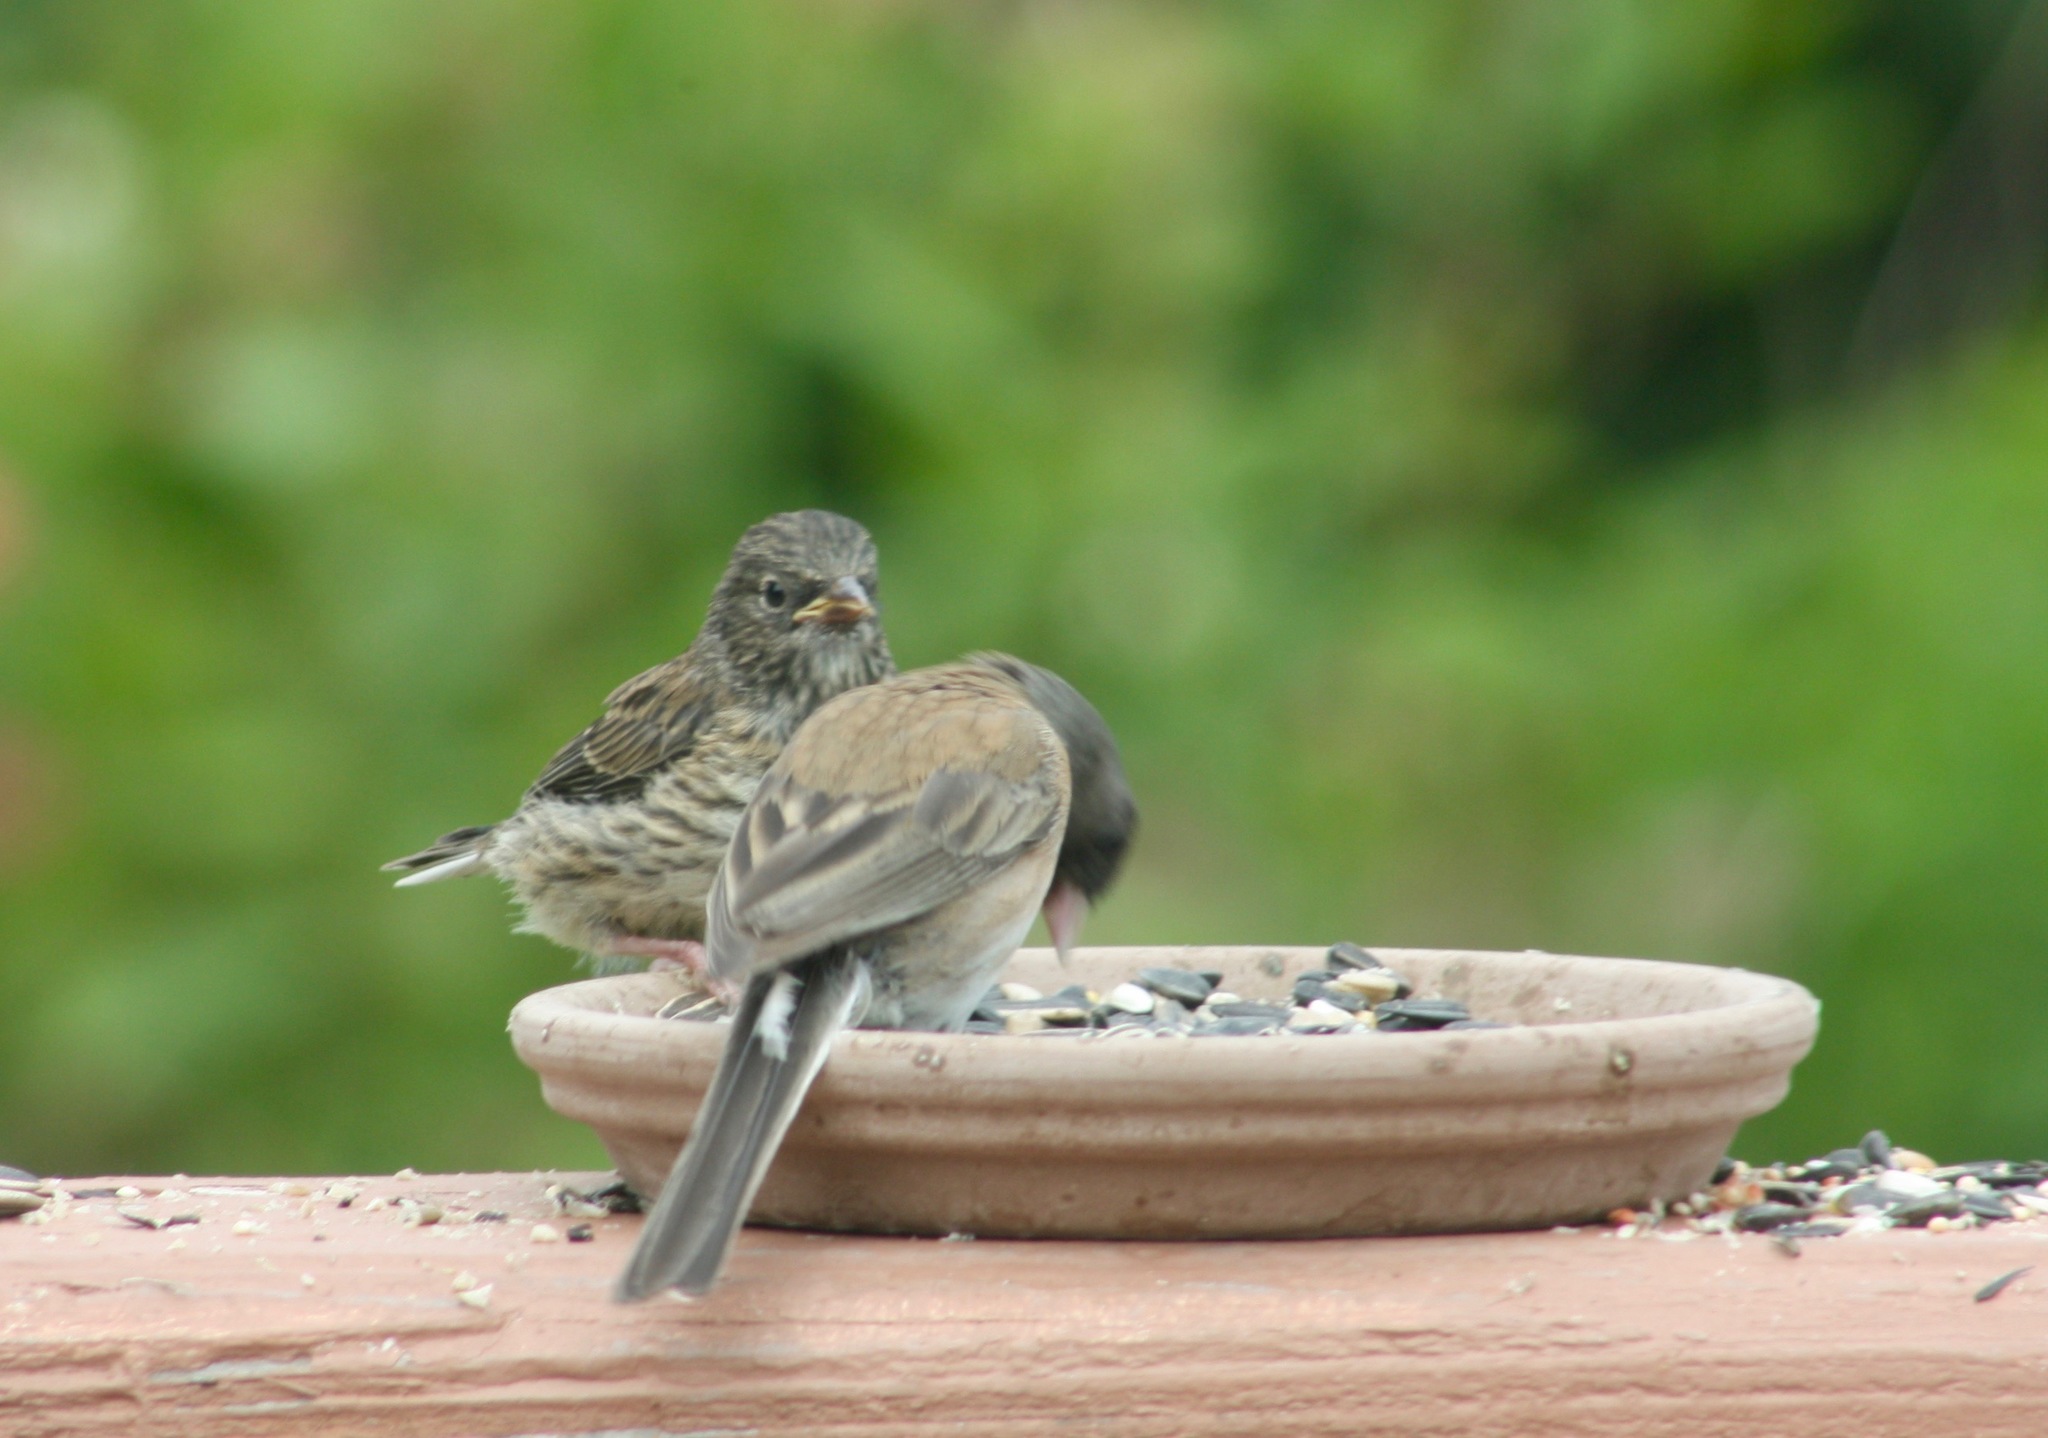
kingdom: Animalia
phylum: Chordata
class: Aves
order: Passeriformes
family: Passerellidae
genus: Junco
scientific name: Junco hyemalis
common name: Dark-eyed junco
